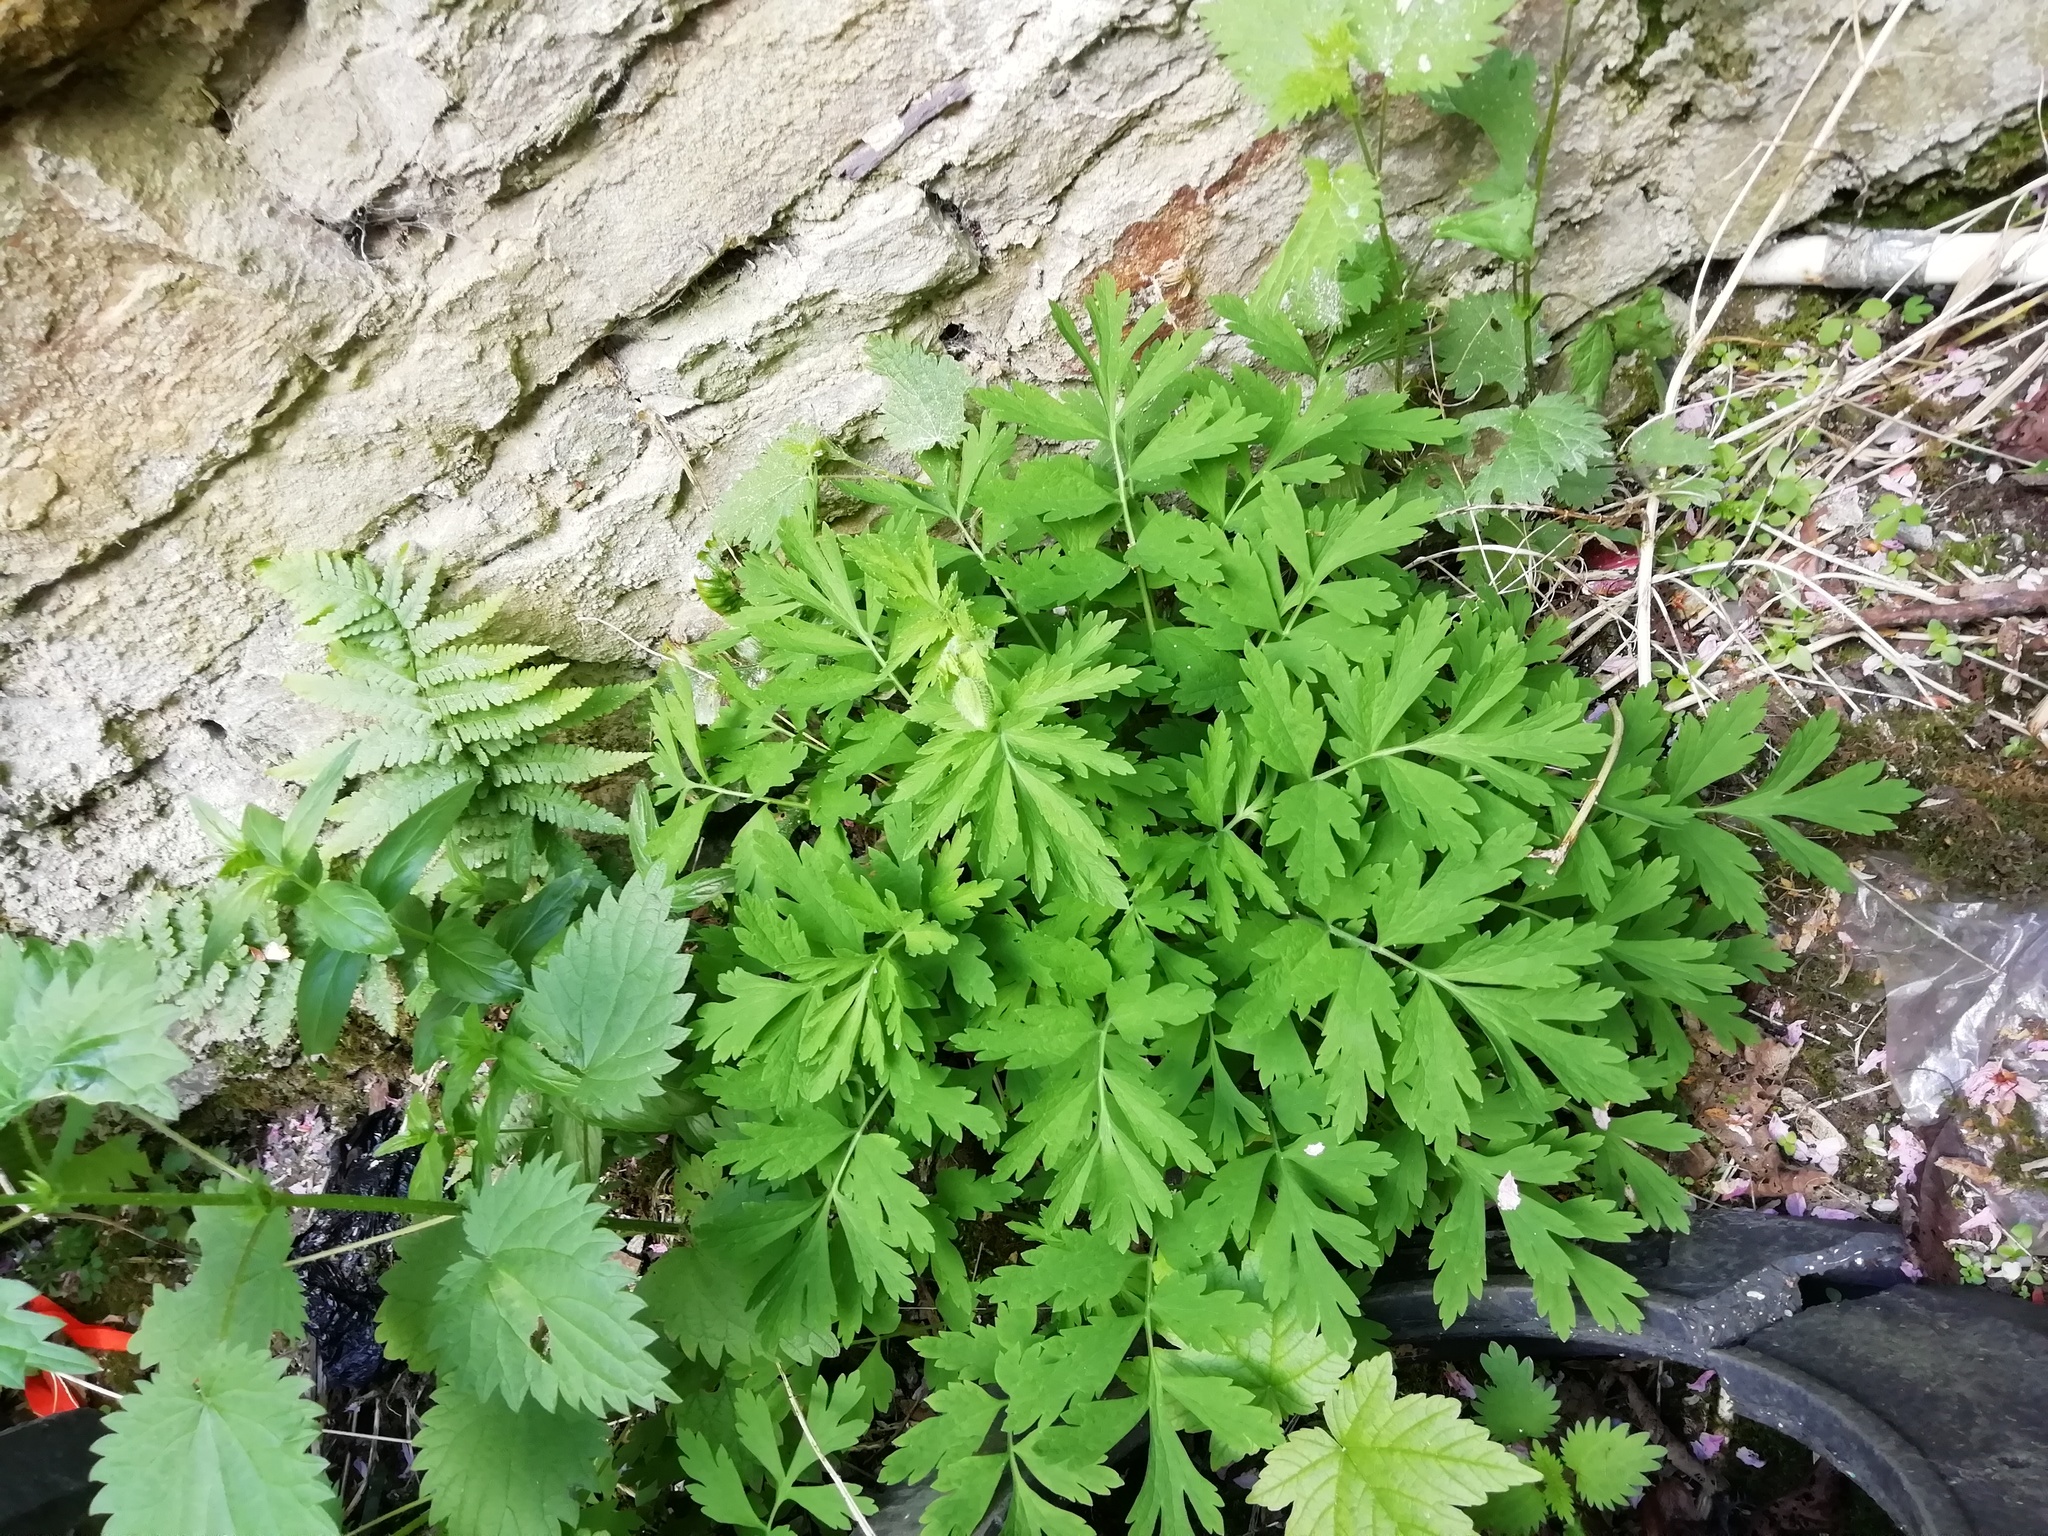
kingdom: Plantae
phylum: Tracheophyta
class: Magnoliopsida
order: Ranunculales
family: Papaveraceae
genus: Papaver
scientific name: Papaver cambricum
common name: Poppy
